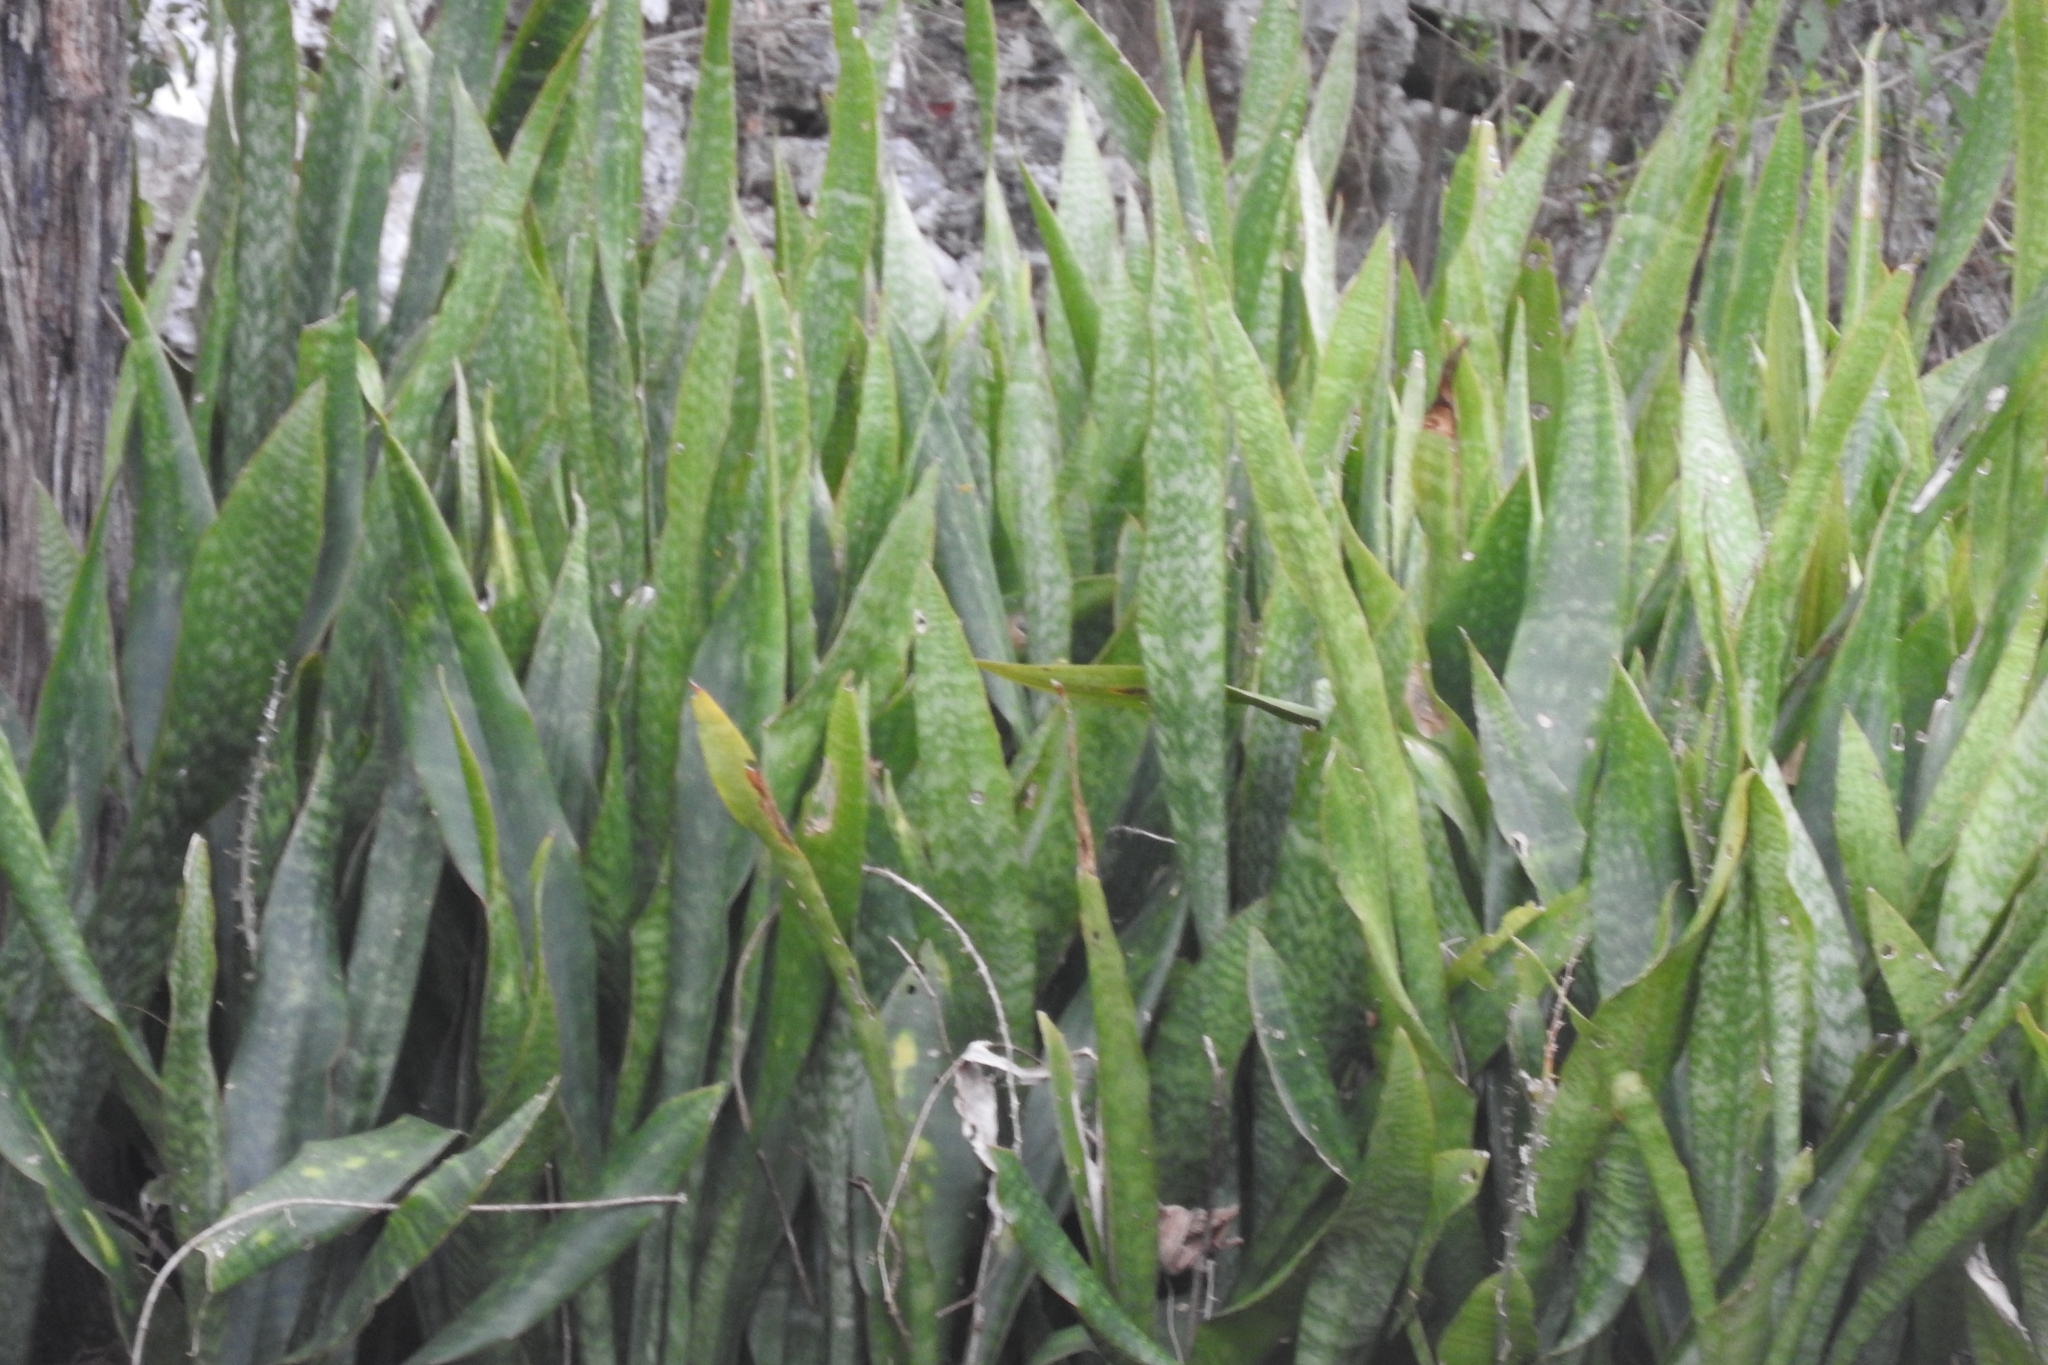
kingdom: Plantae
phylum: Tracheophyta
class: Liliopsida
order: Asparagales
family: Asparagaceae
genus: Dracaena
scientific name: Dracaena hyacinthoides
